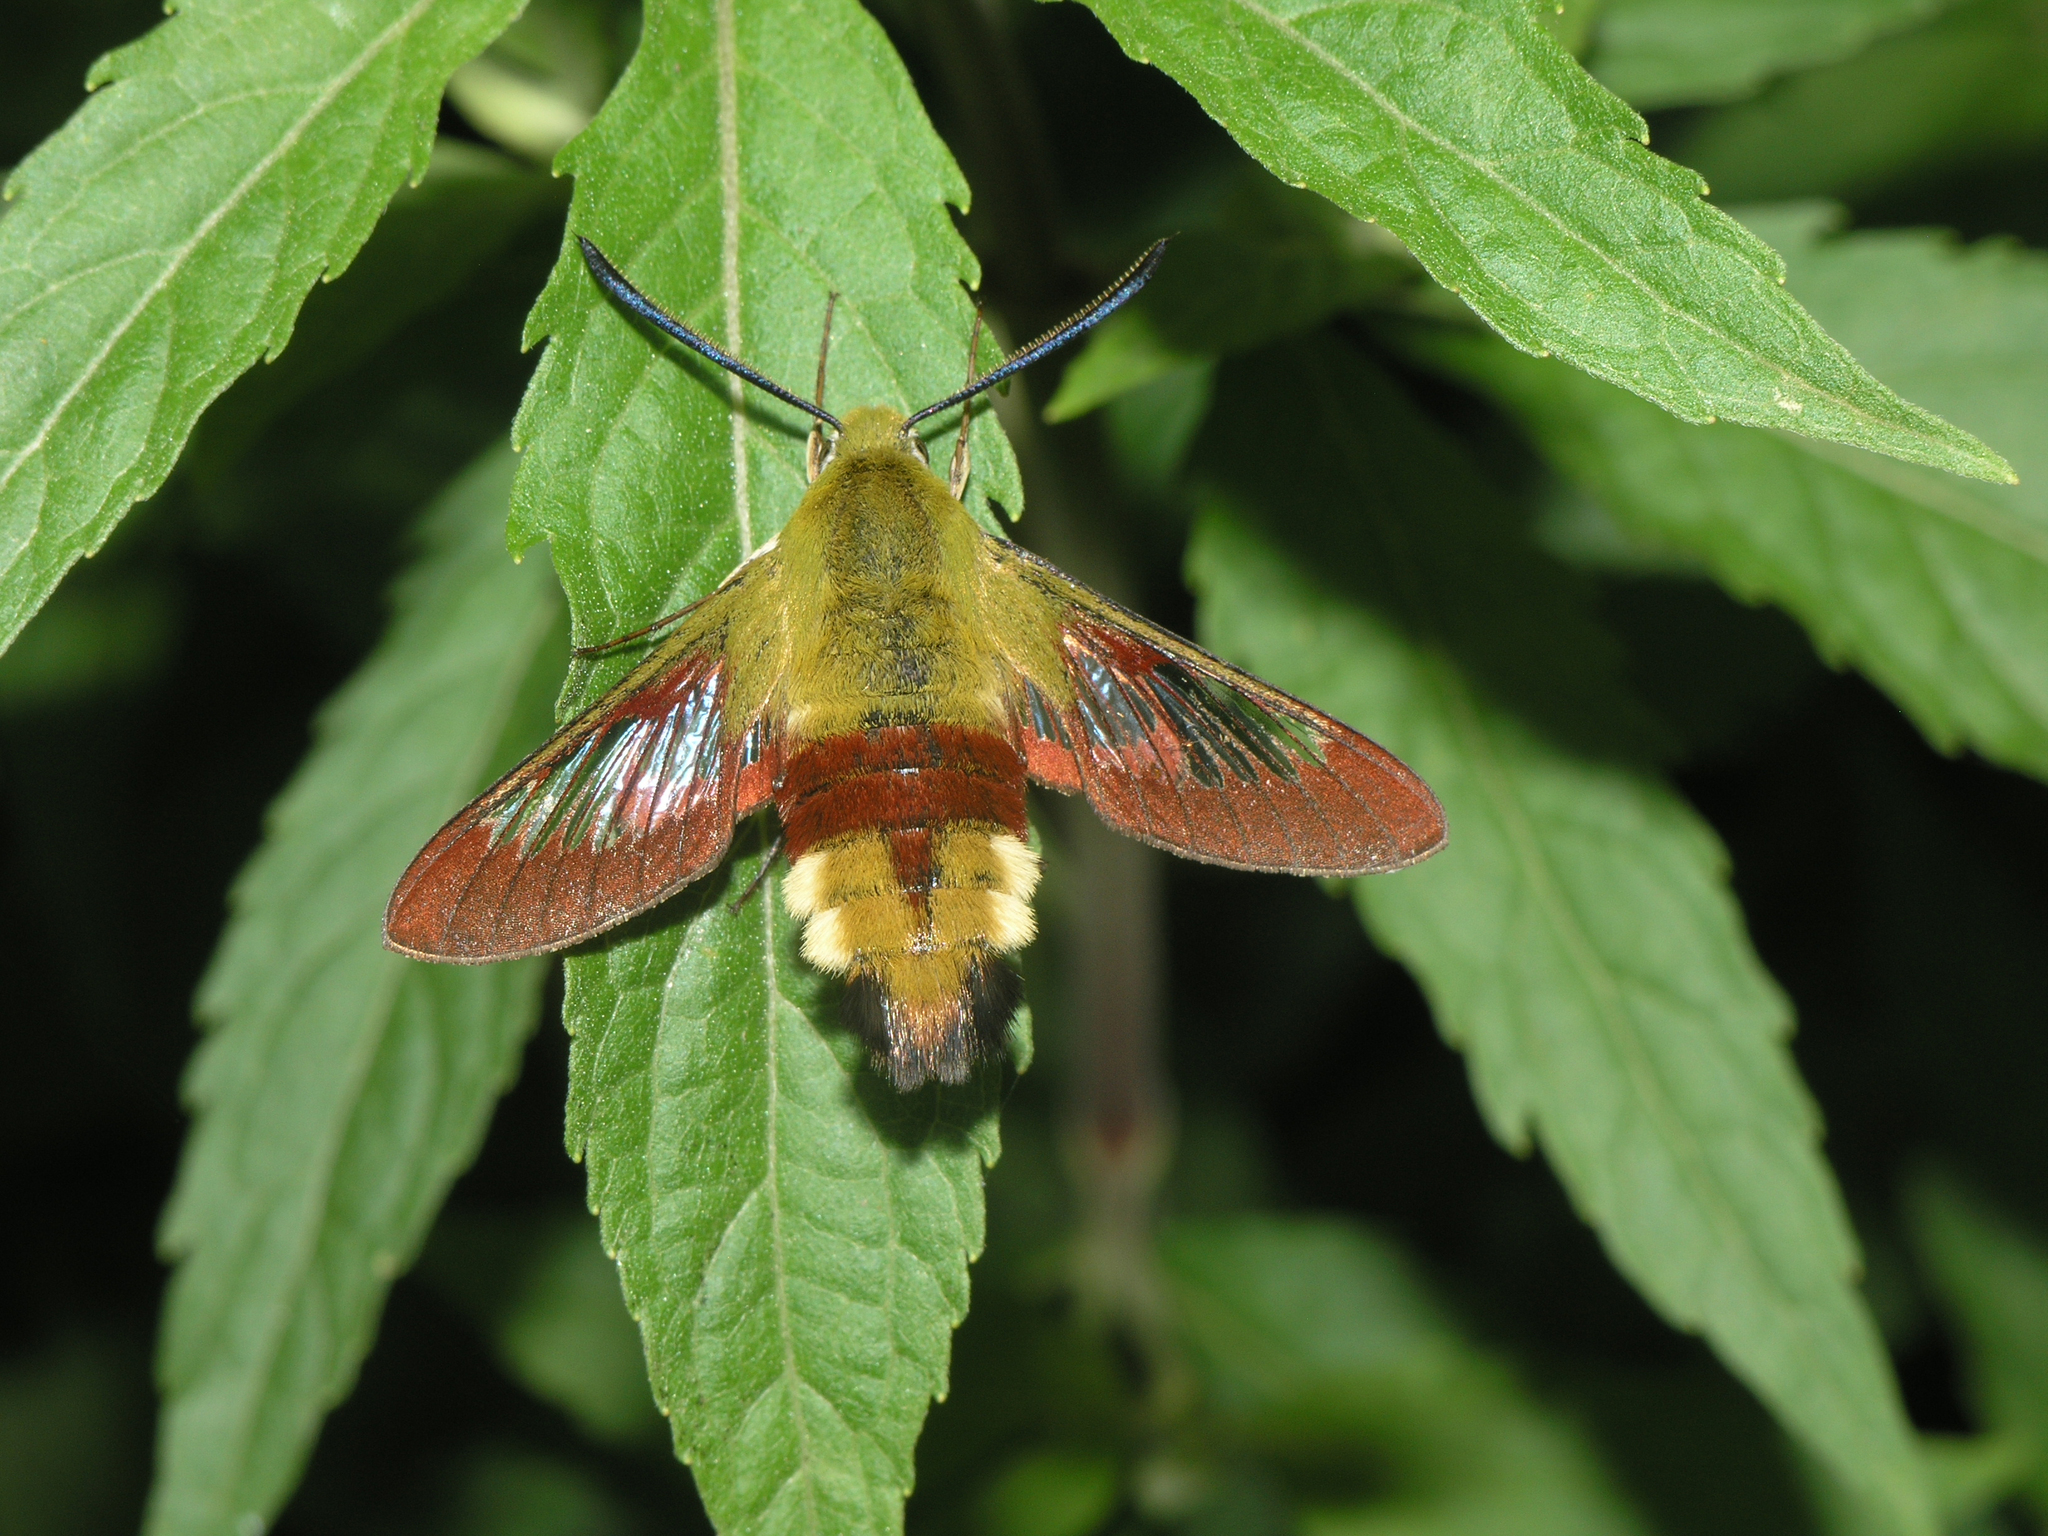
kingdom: Animalia
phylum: Arthropoda
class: Insecta
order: Lepidoptera
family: Sphingidae
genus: Hemaris
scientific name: Hemaris fuciformis
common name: Broad-bordered bee hawk-moth
